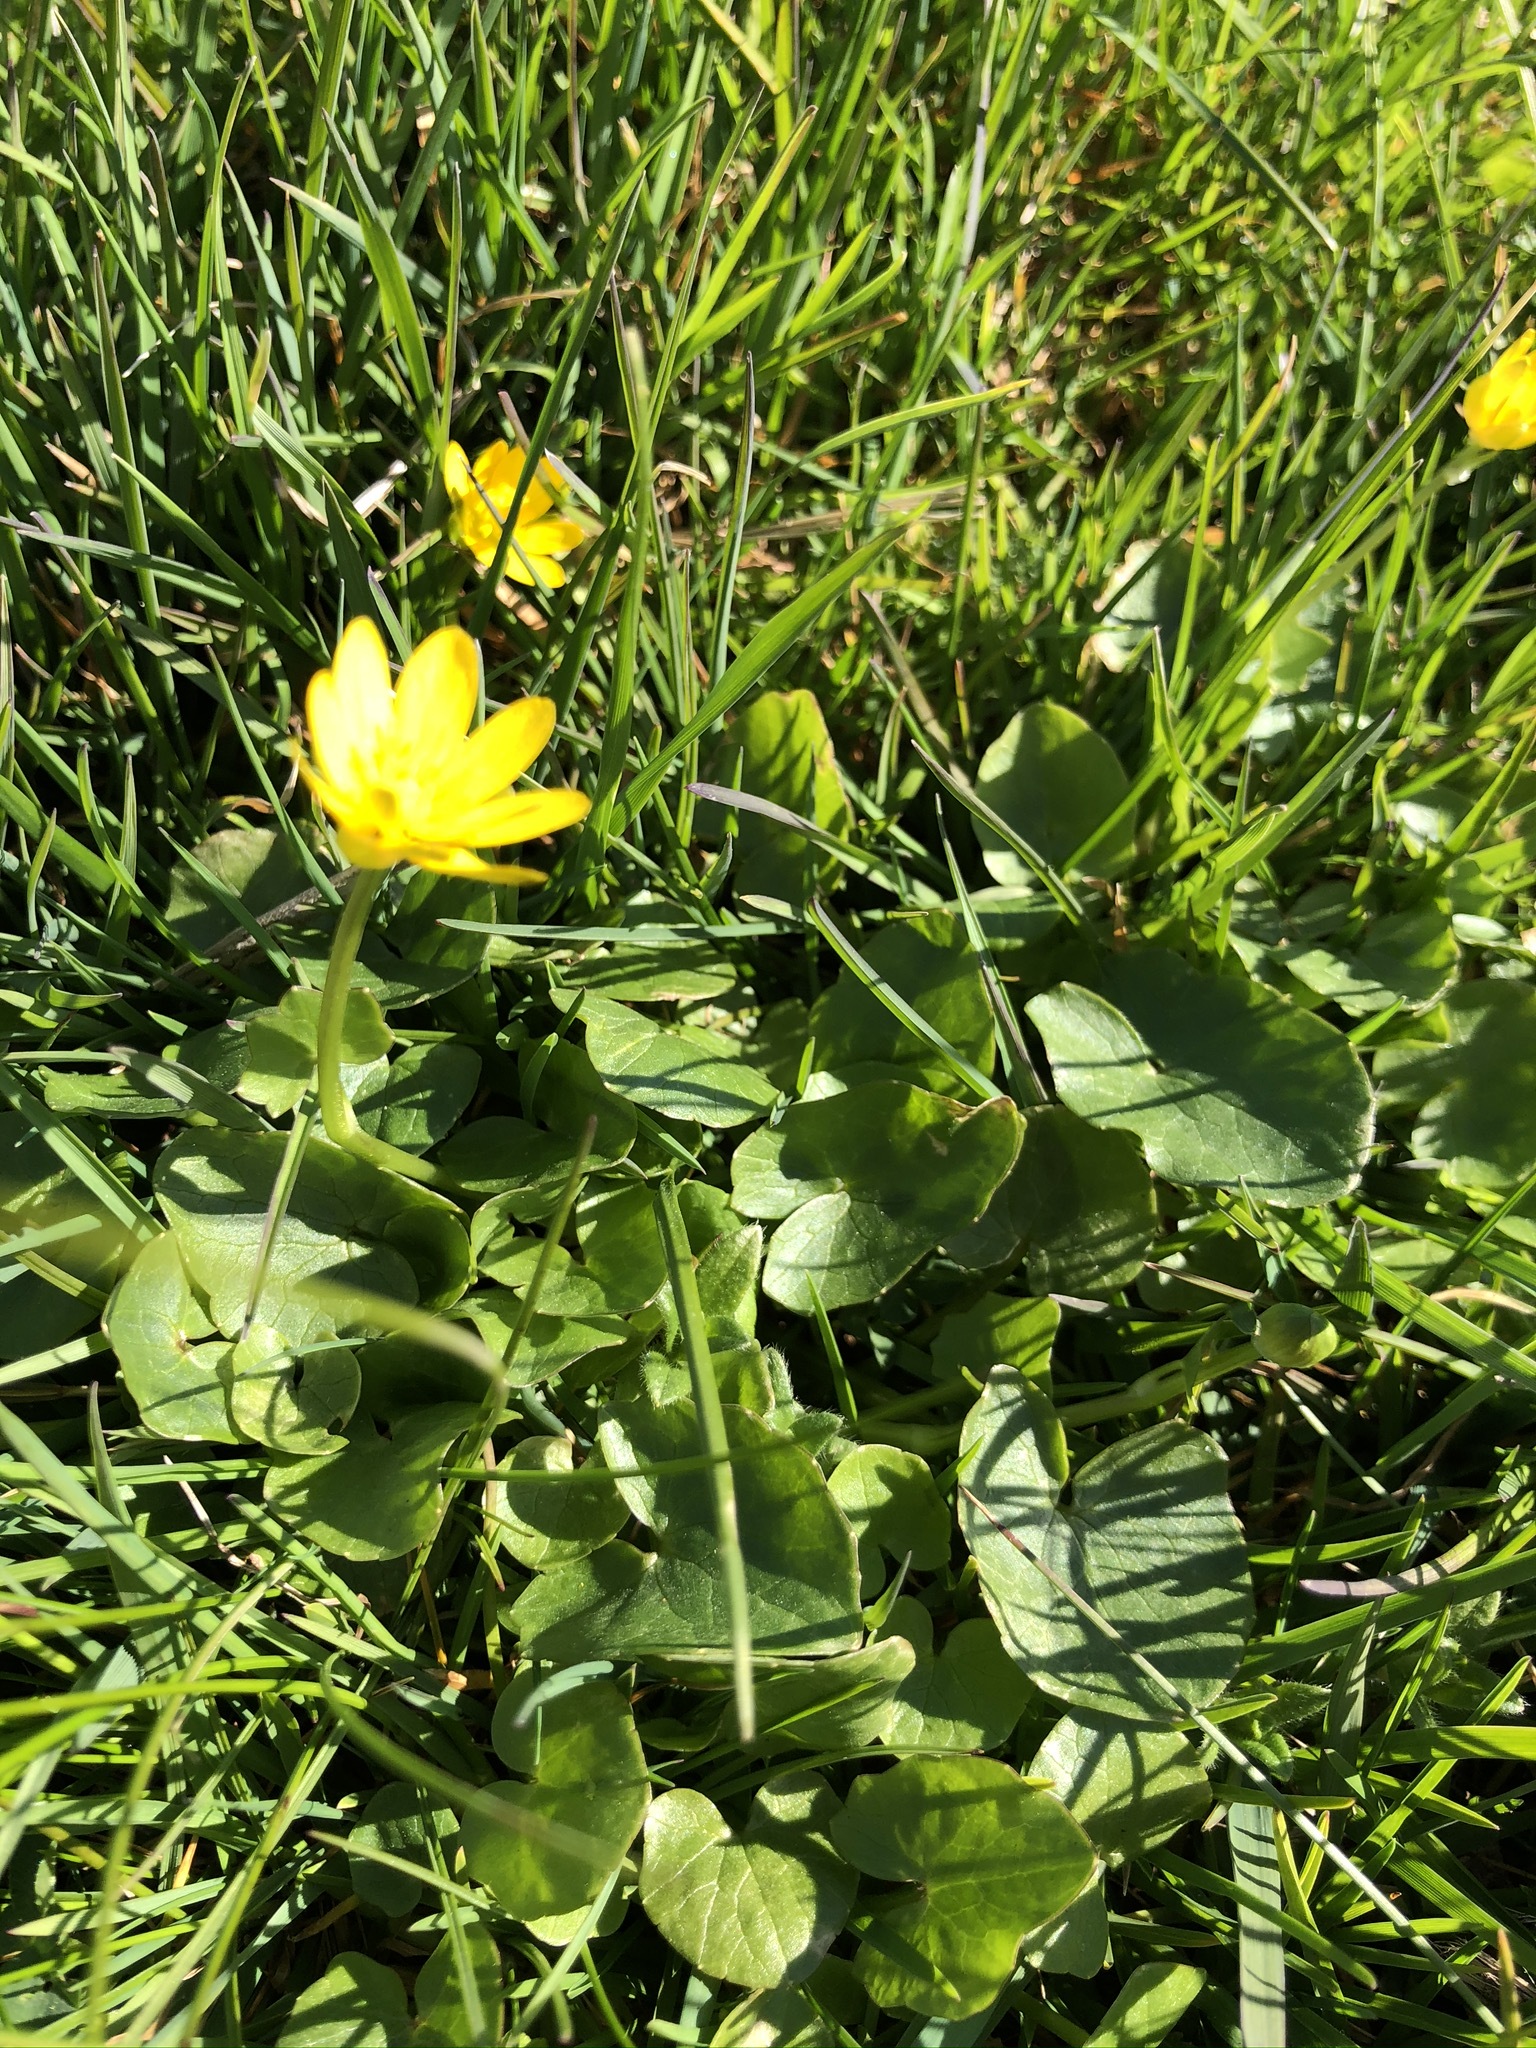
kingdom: Plantae
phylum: Tracheophyta
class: Magnoliopsida
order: Ranunculales
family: Ranunculaceae
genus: Ficaria
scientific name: Ficaria verna
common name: Lesser celandine
